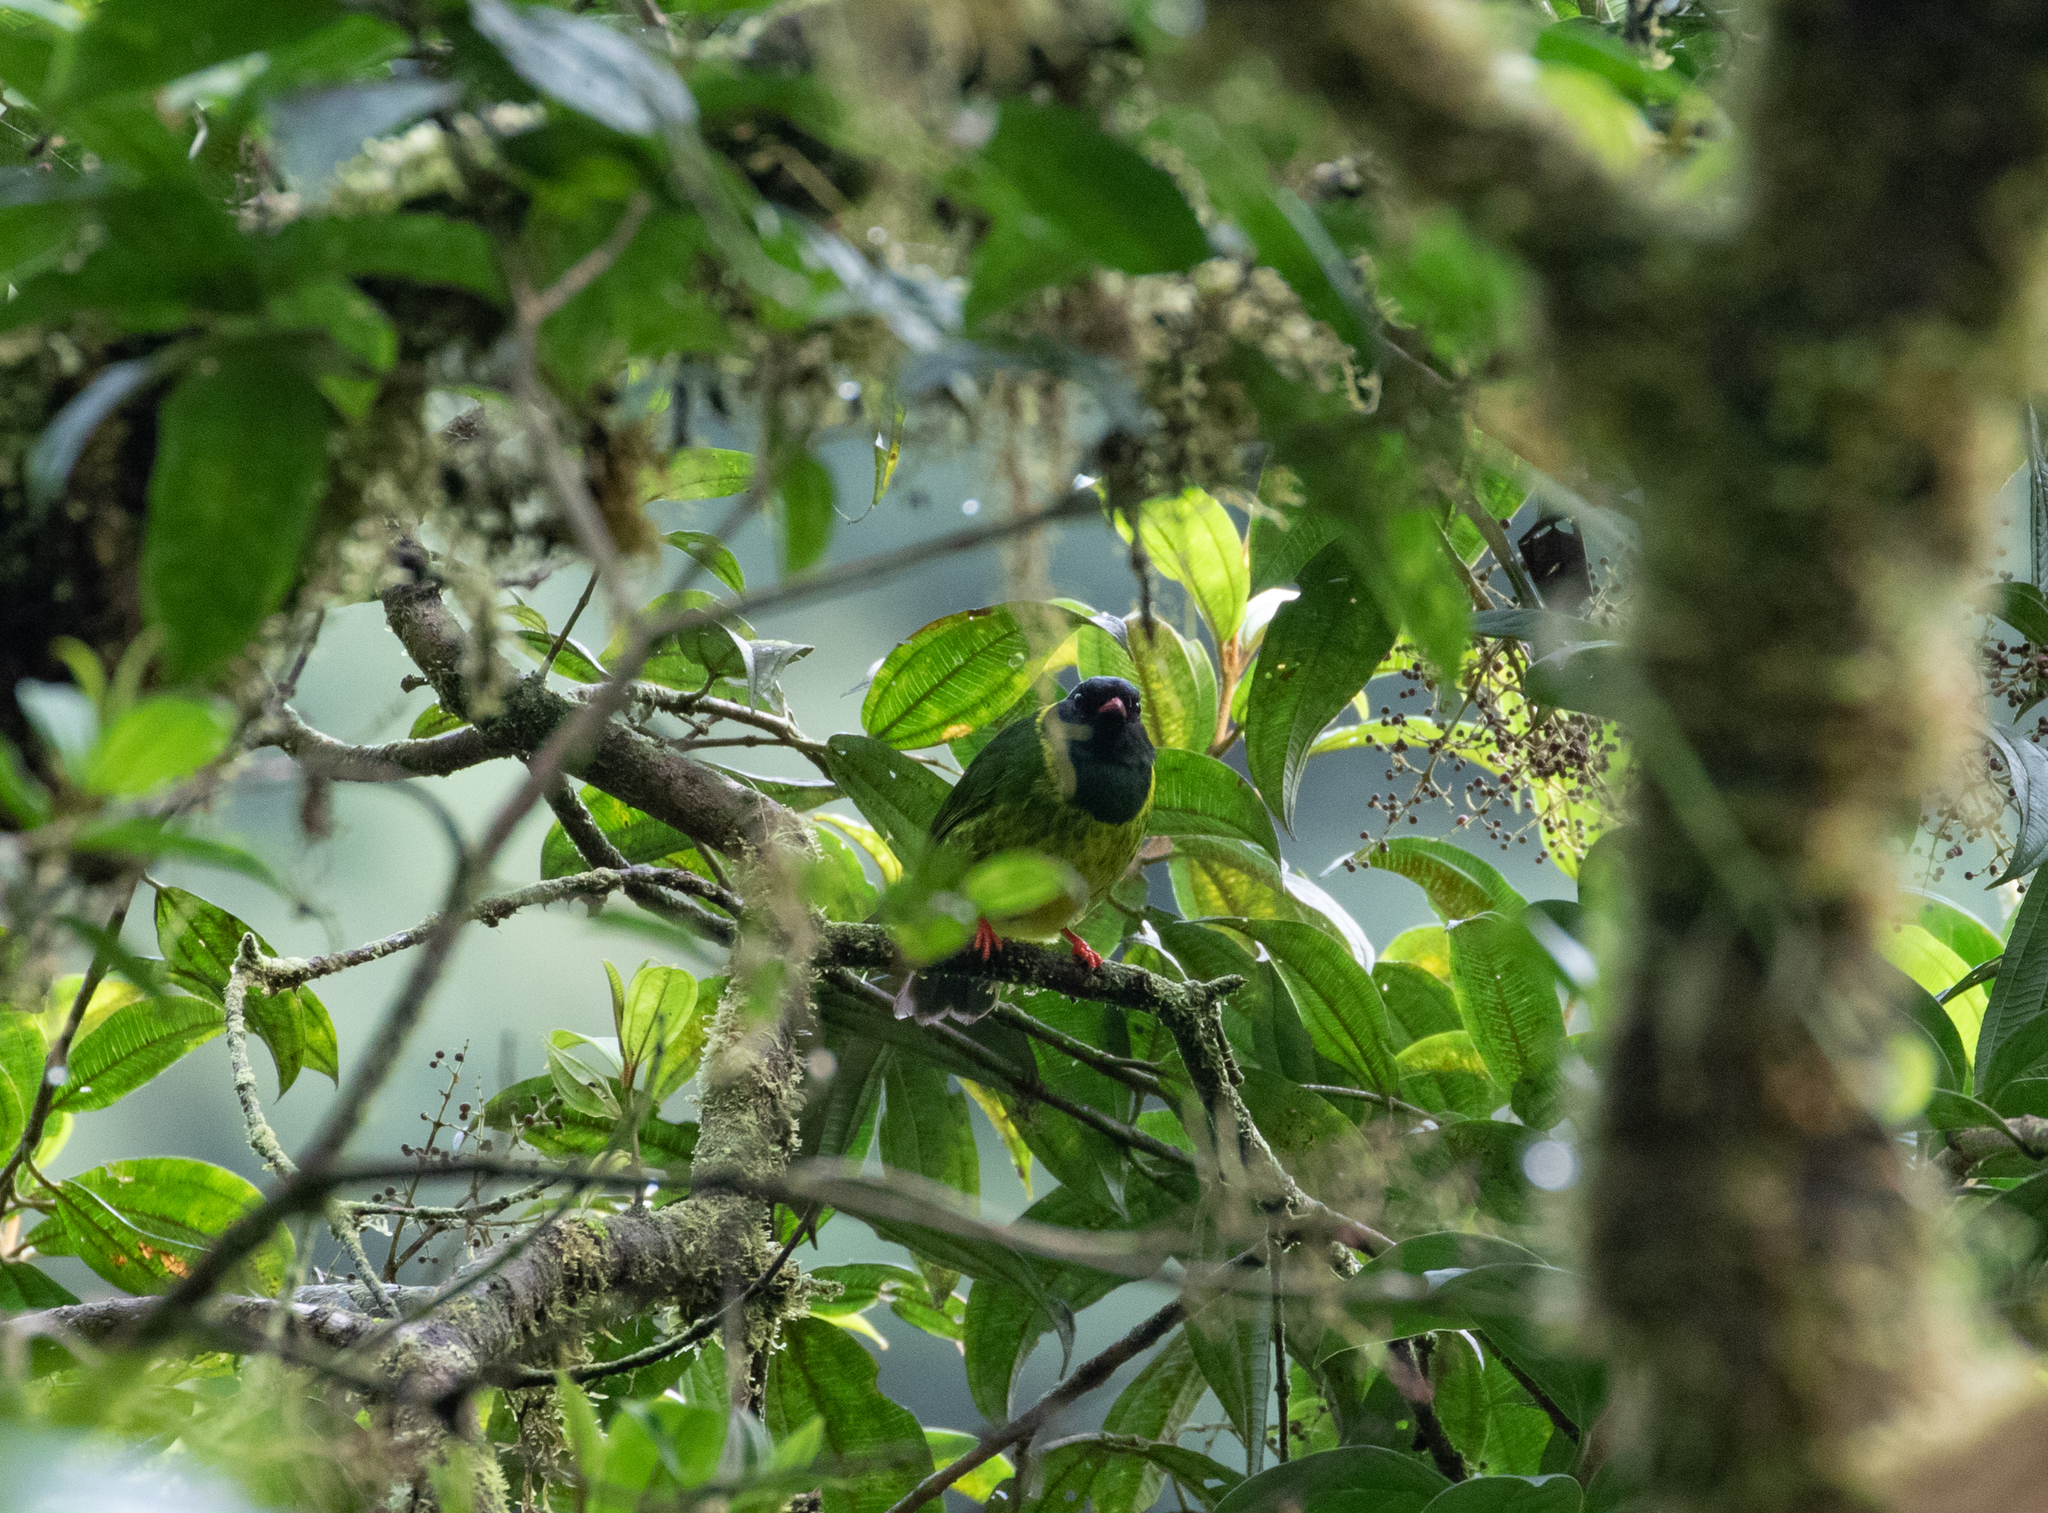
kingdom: Animalia
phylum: Chordata
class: Aves
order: Passeriformes
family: Cotingidae
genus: Pipreola
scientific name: Pipreola riefferii
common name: Green-and-black fruiteater
